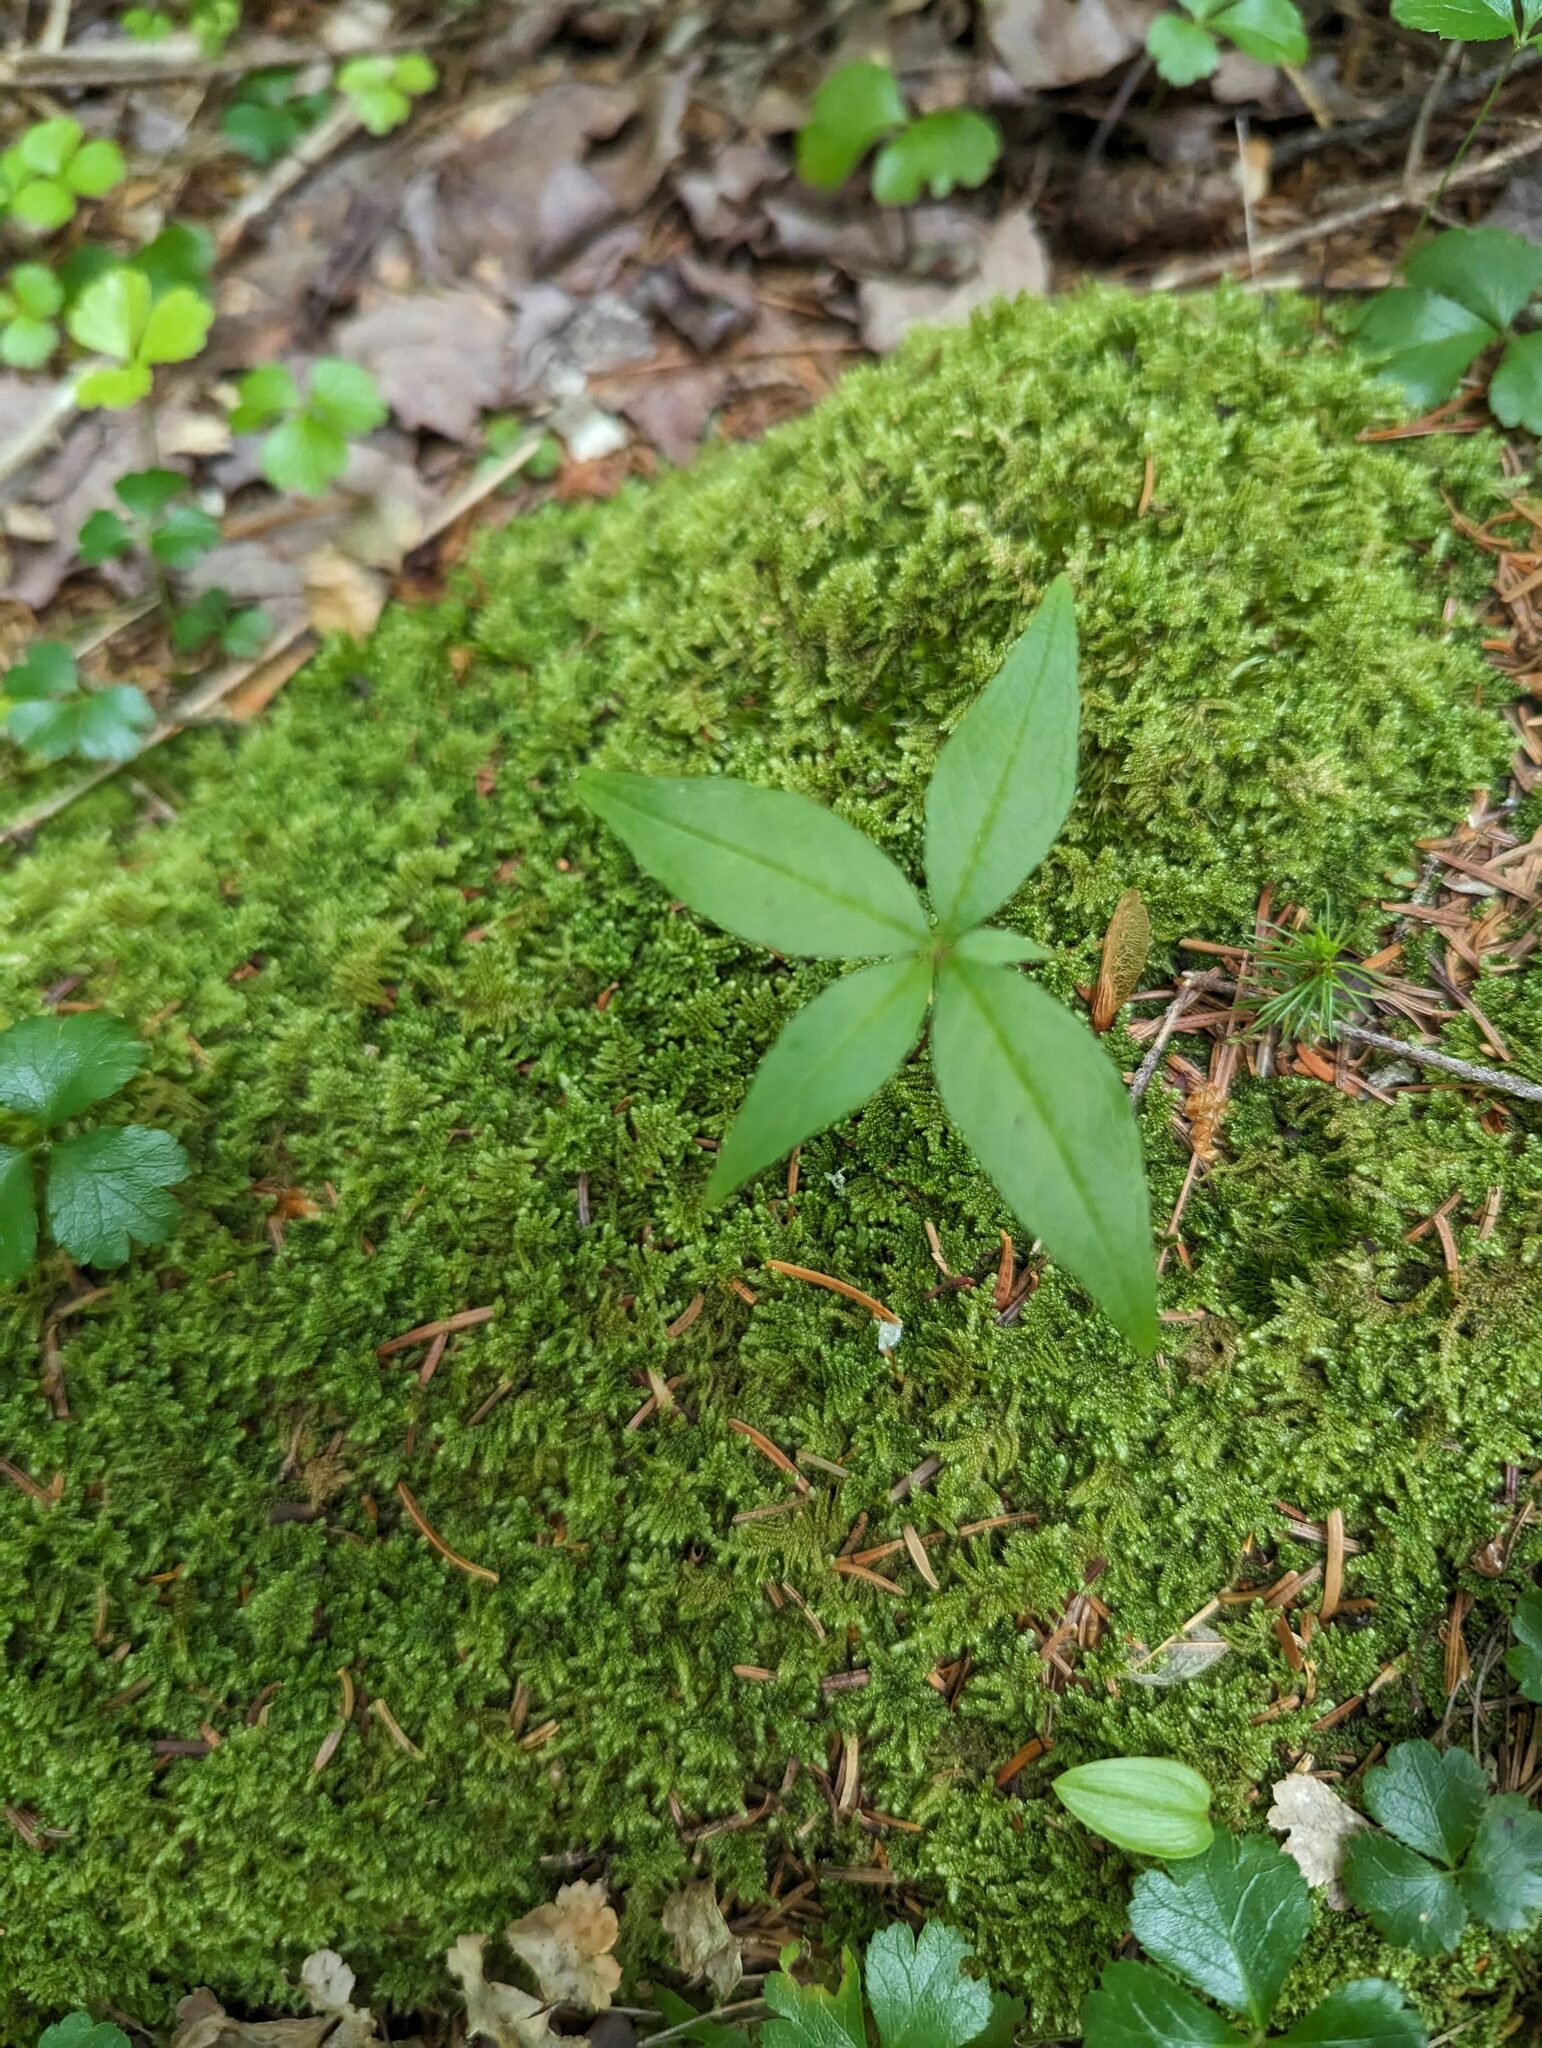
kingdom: Plantae
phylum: Tracheophyta
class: Magnoliopsida
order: Ericales
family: Primulaceae
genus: Lysimachia
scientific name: Lysimachia borealis
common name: American starflower
